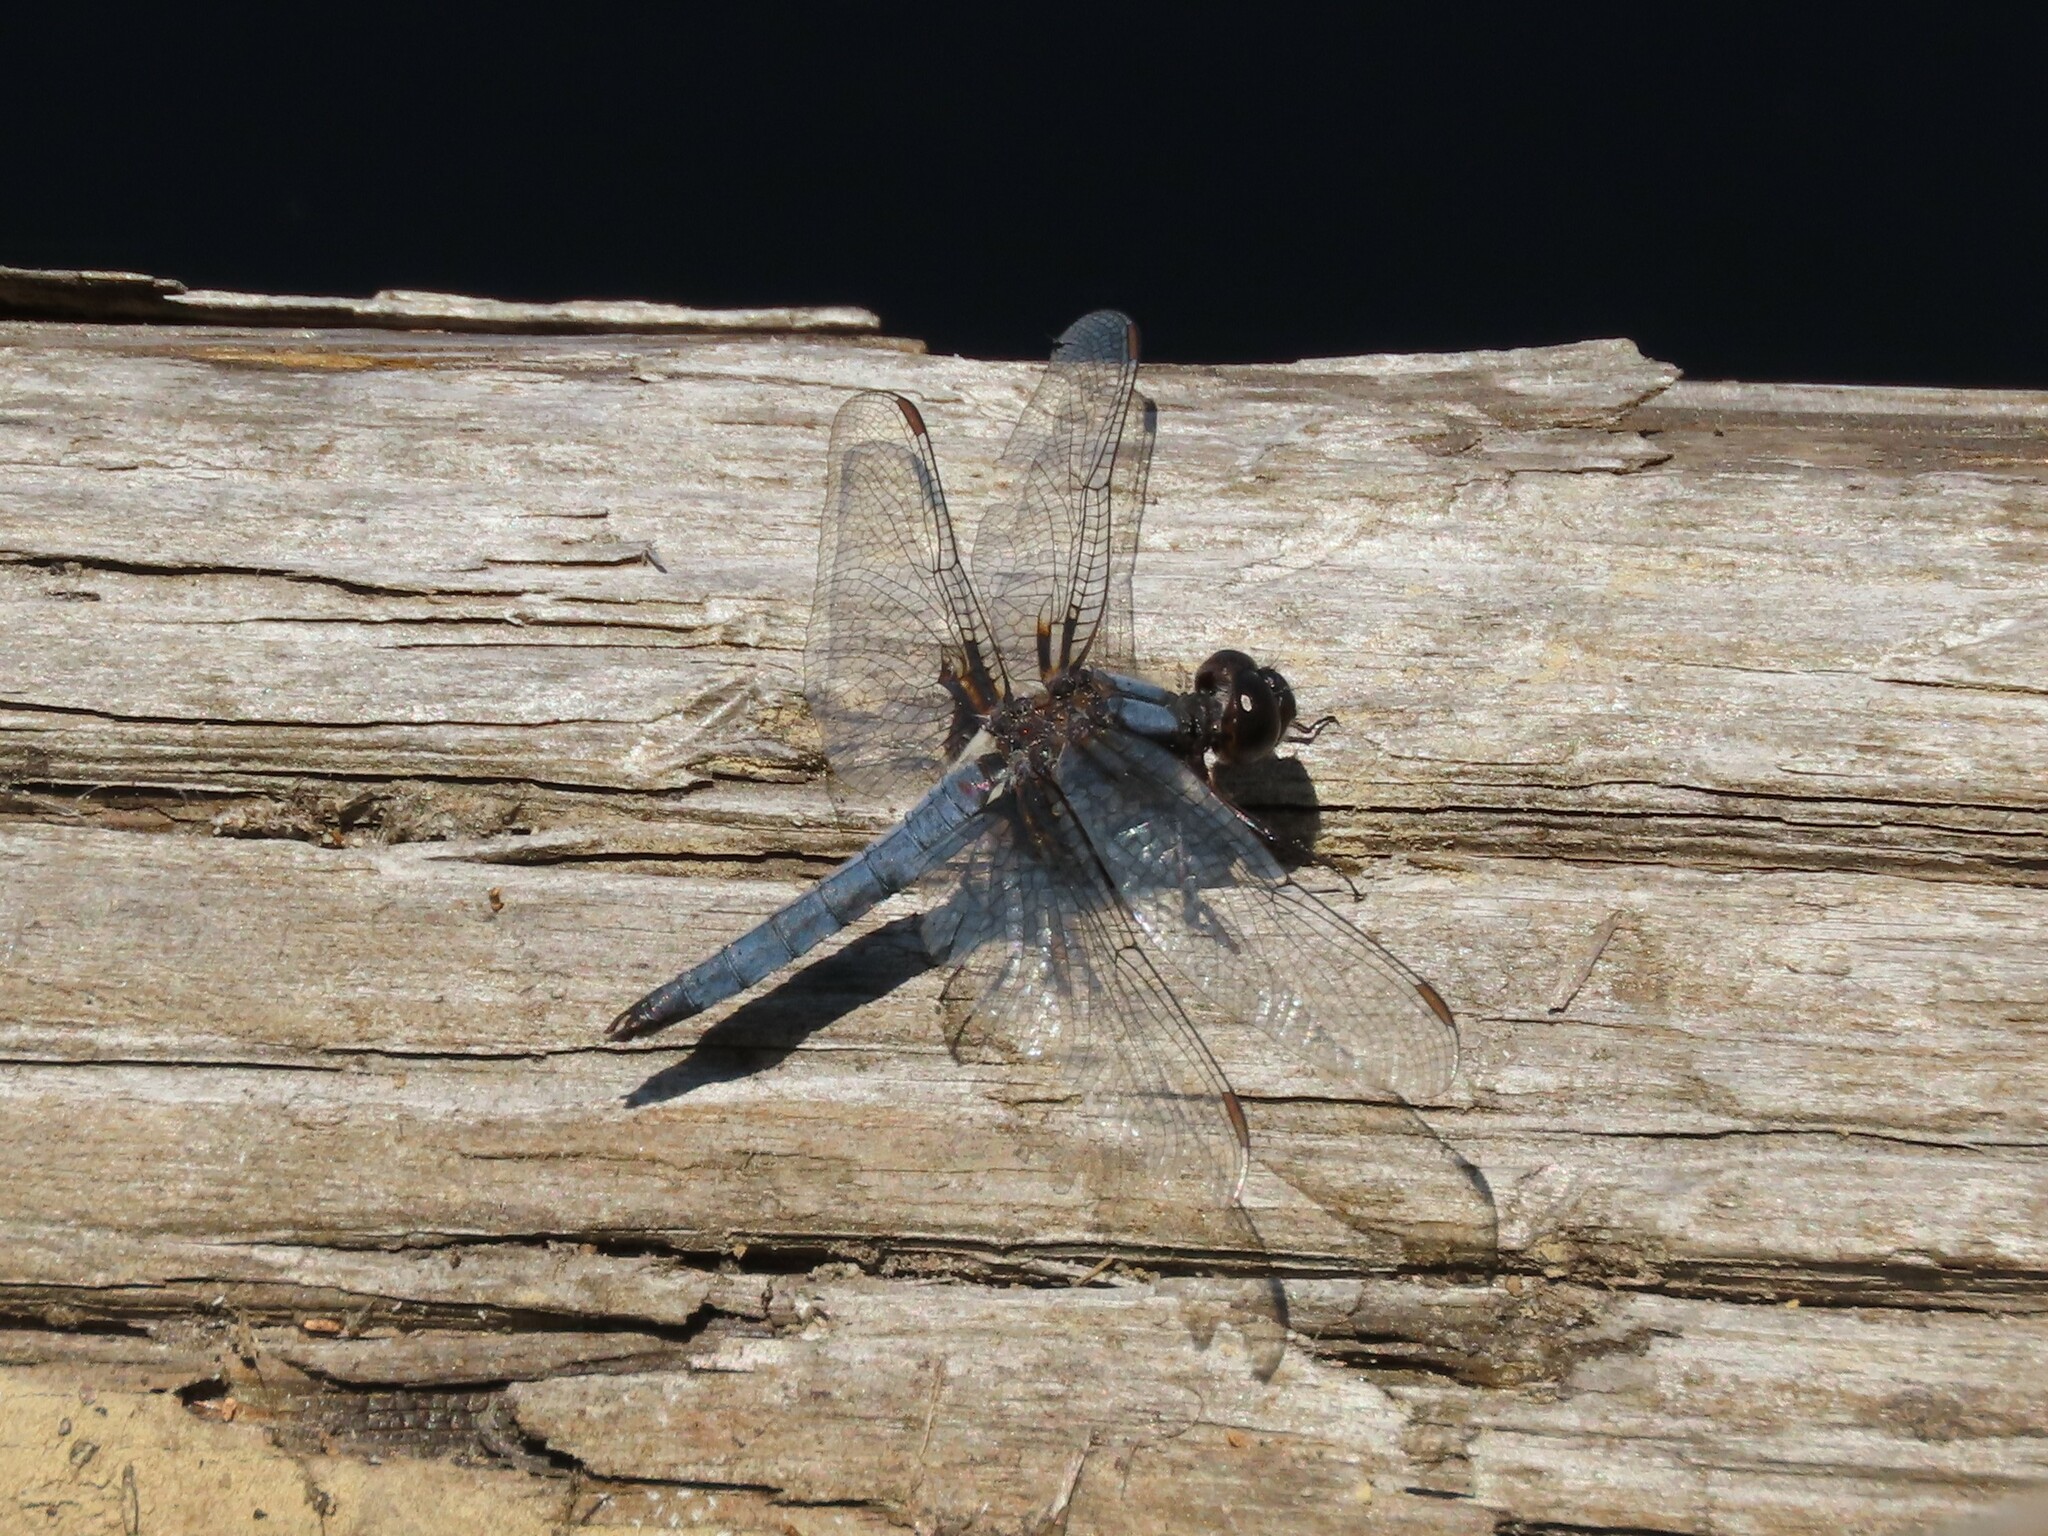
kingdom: Animalia
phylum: Arthropoda
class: Insecta
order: Odonata
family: Libellulidae
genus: Ladona
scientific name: Ladona deplanata
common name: Blue corporal
